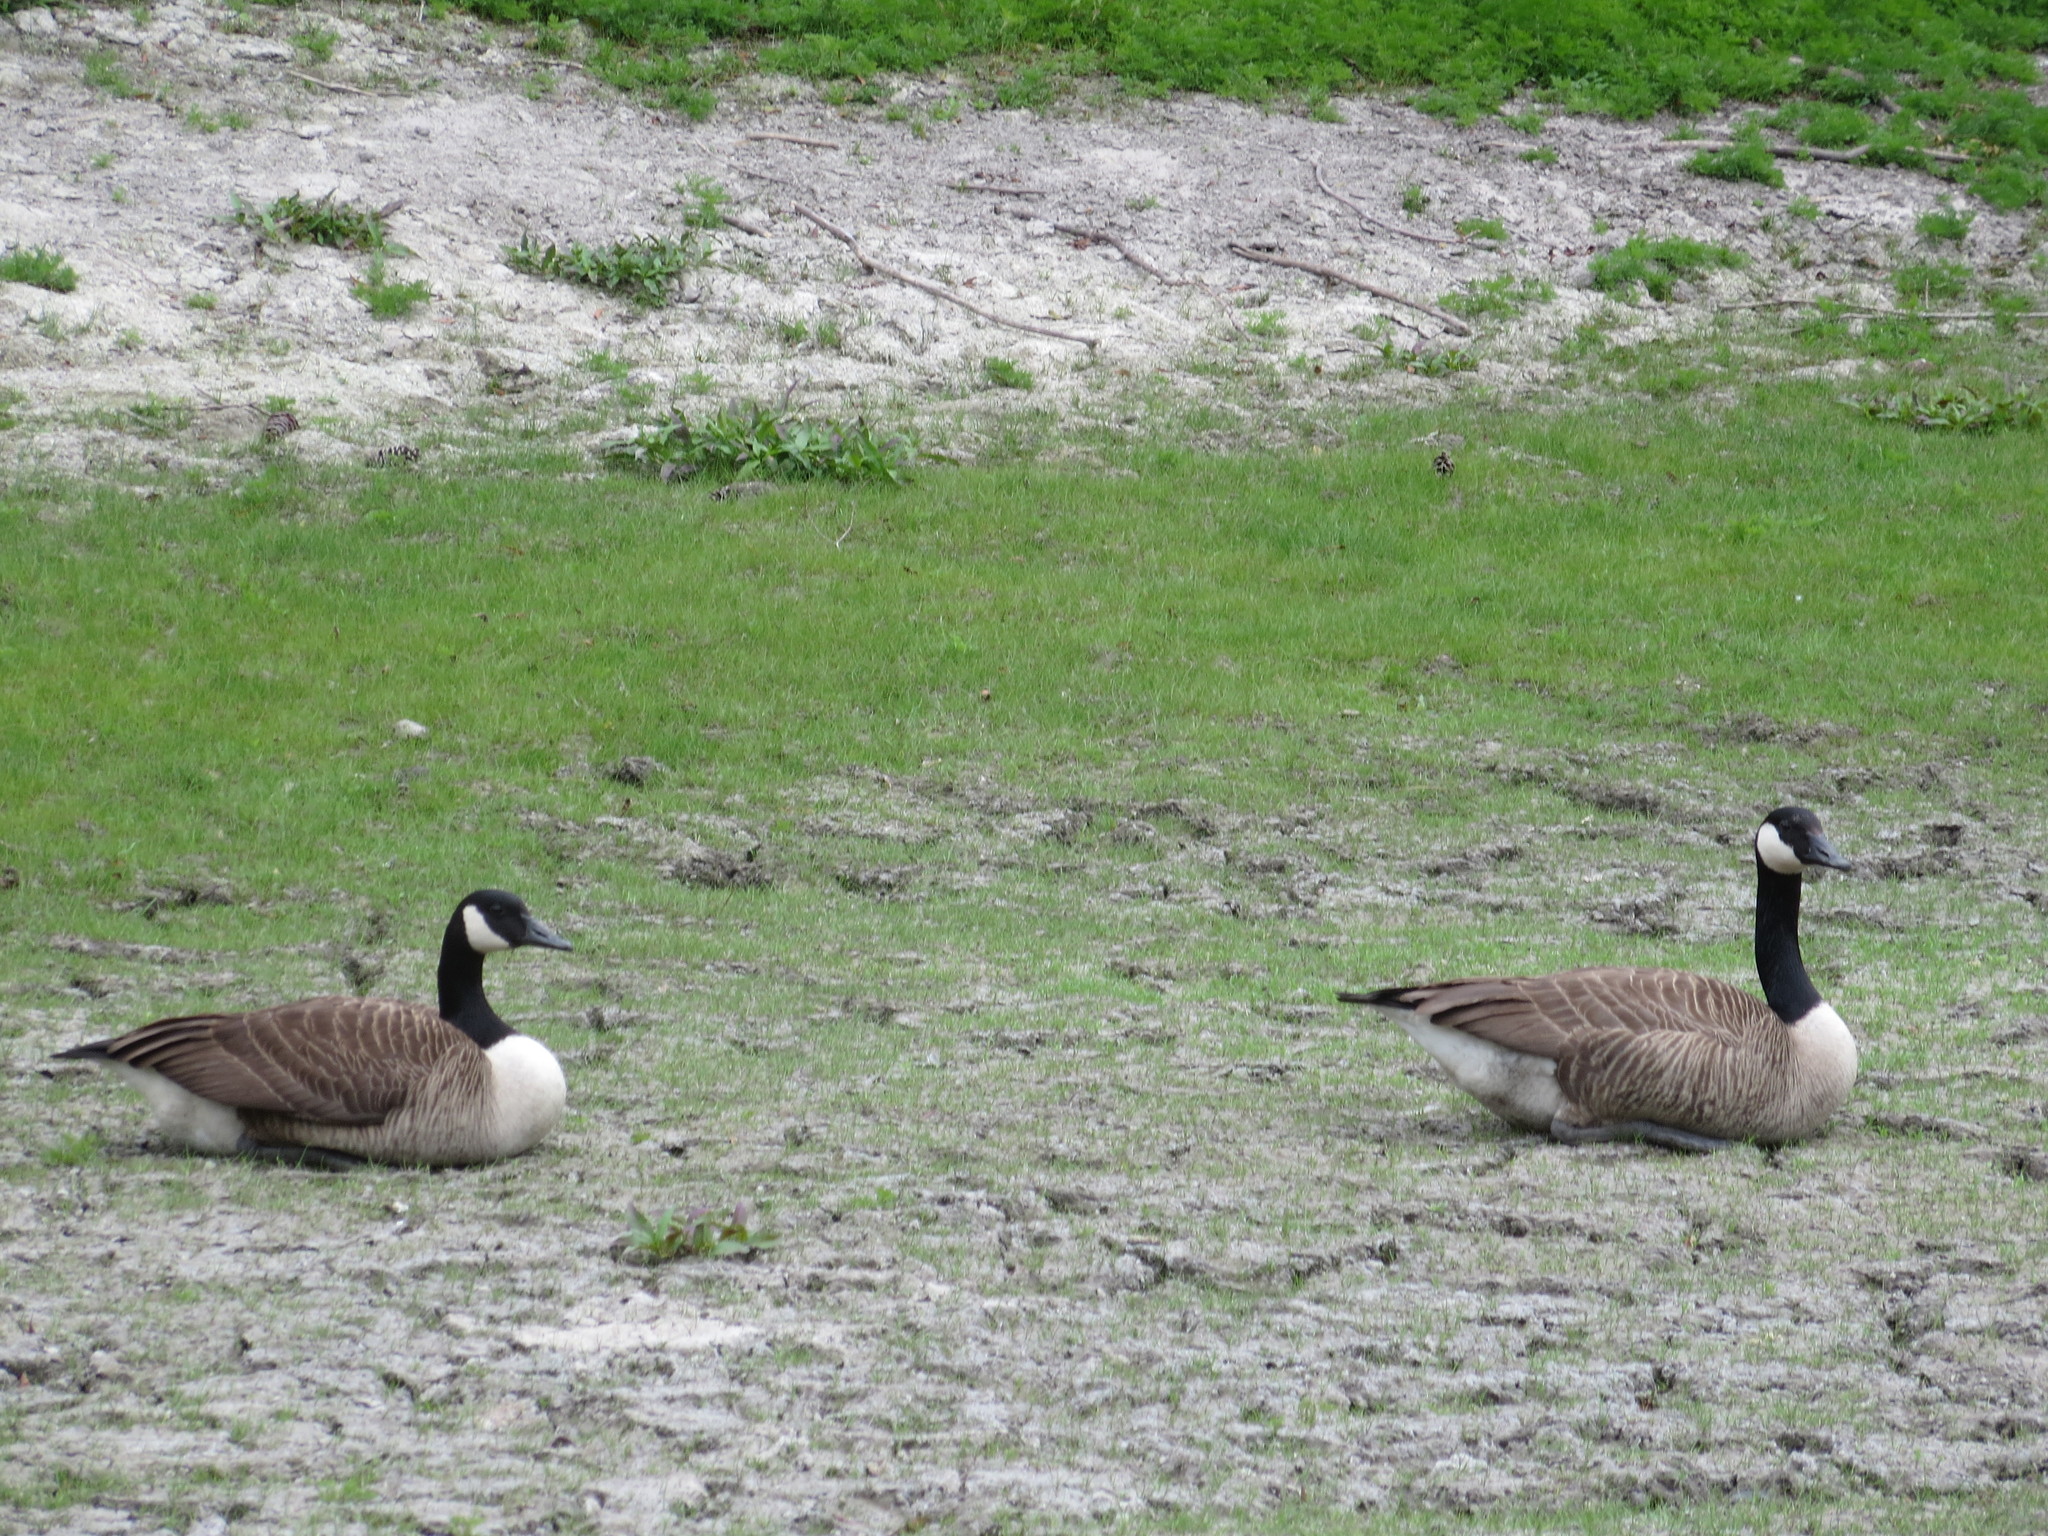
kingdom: Animalia
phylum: Chordata
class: Aves
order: Anseriformes
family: Anatidae
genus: Branta
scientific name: Branta canadensis
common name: Canada goose
